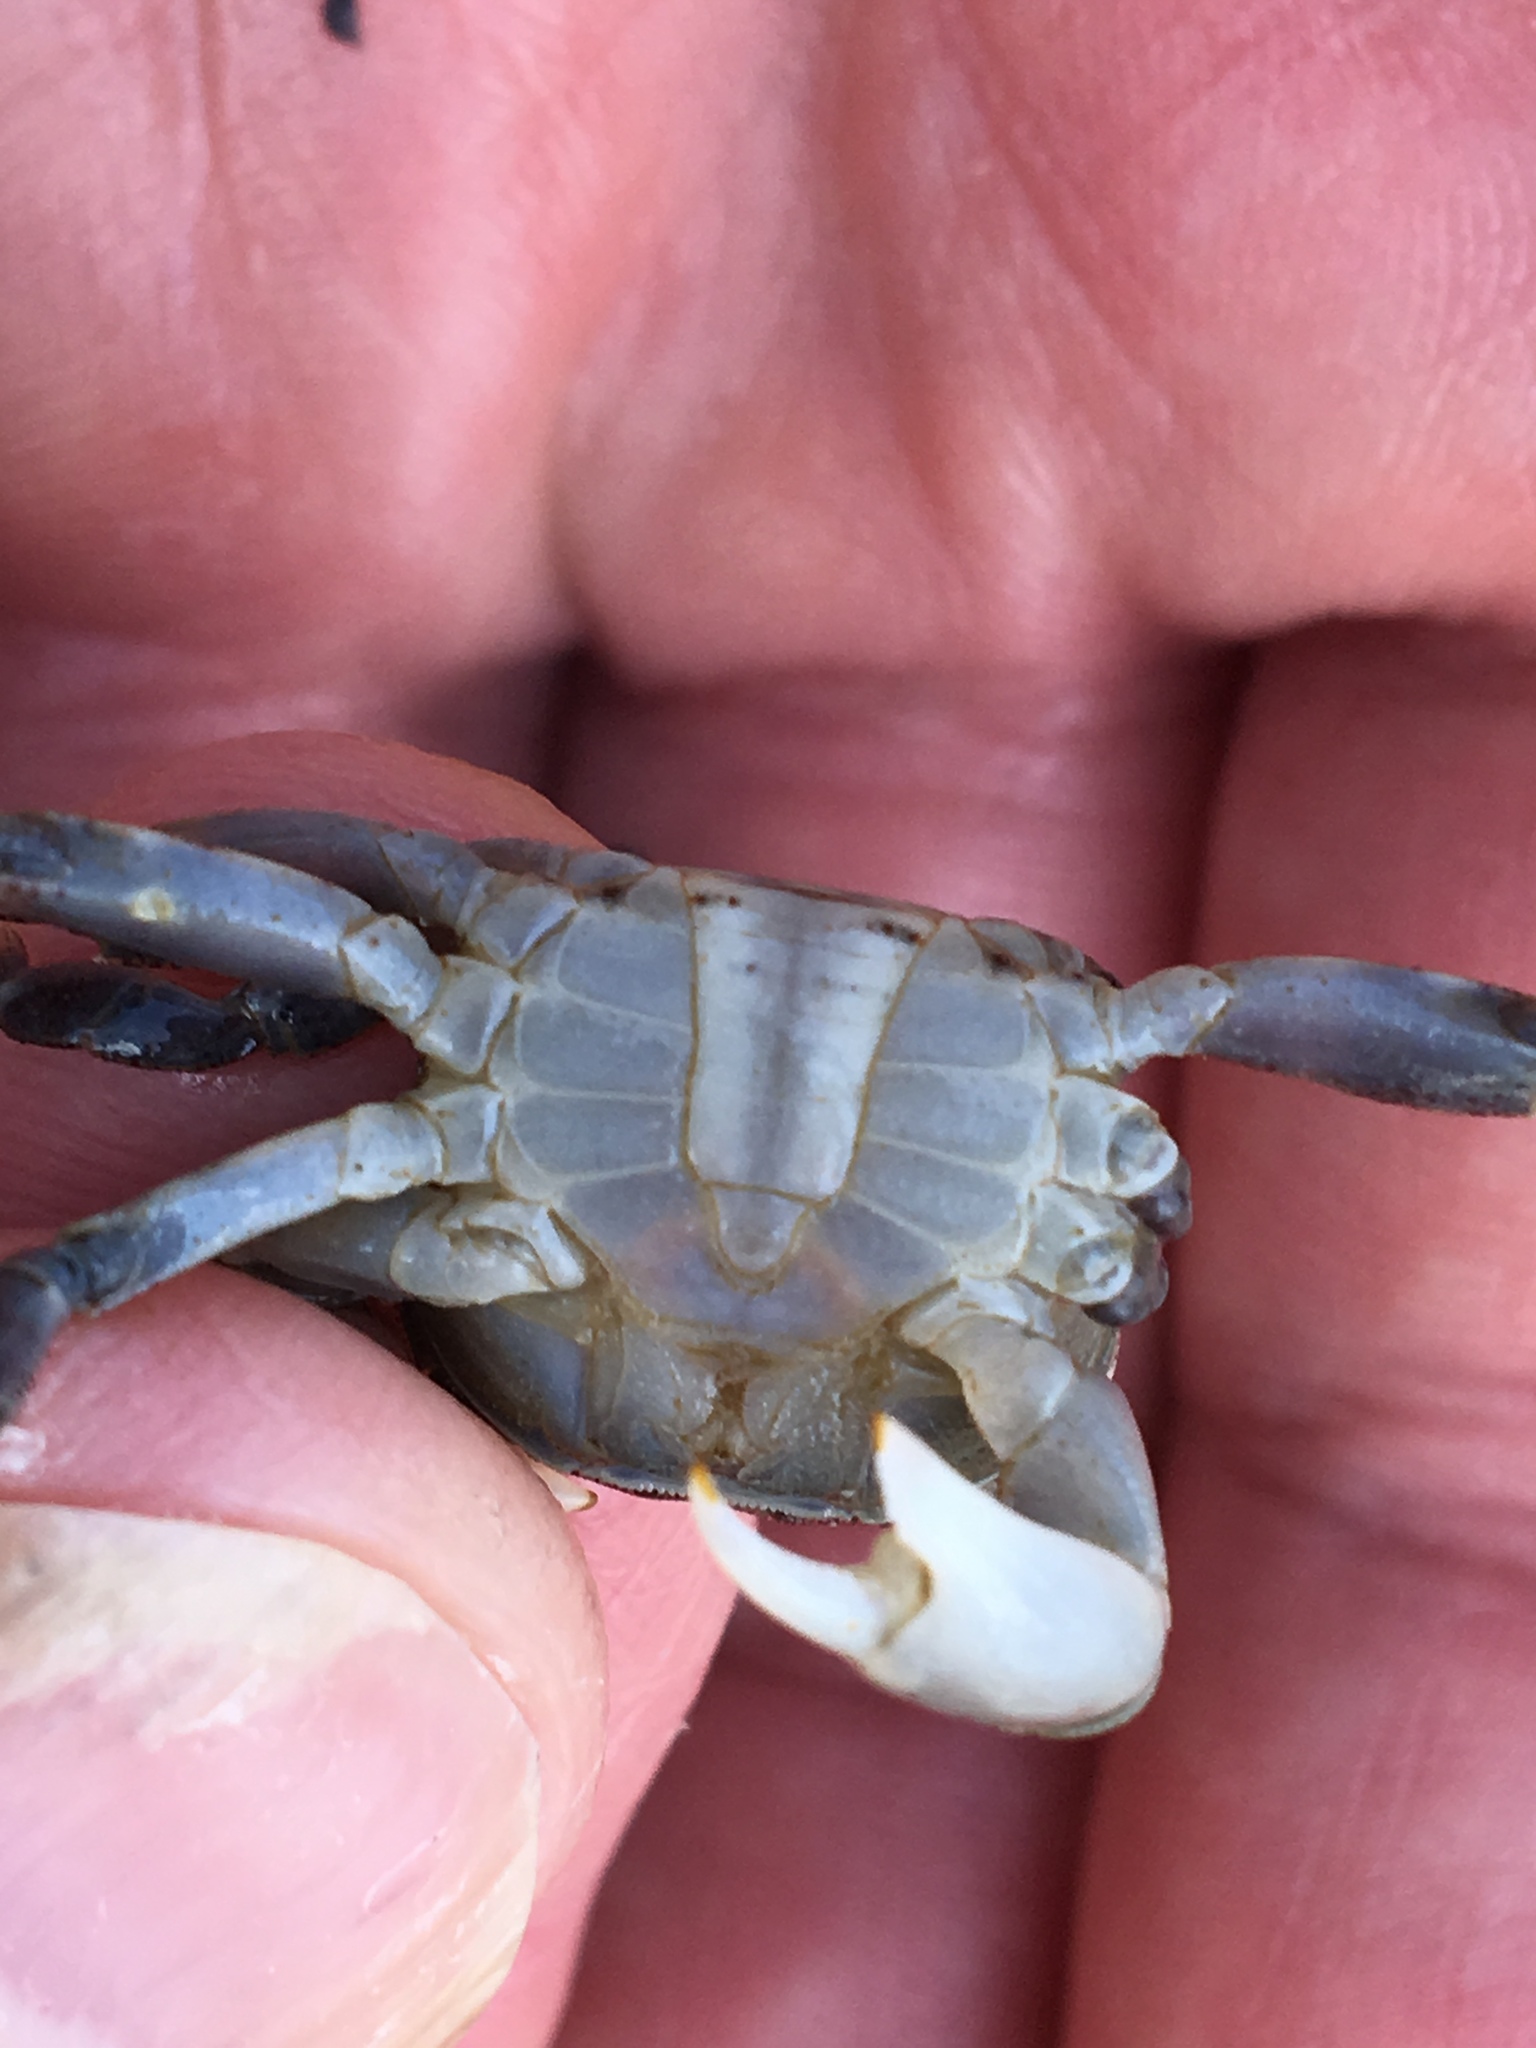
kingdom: Animalia
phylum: Arthropoda
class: Malacostraca
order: Decapoda
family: Varunidae
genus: Hemigrapsus
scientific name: Hemigrapsus sanguineus
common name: Asian shore crab
